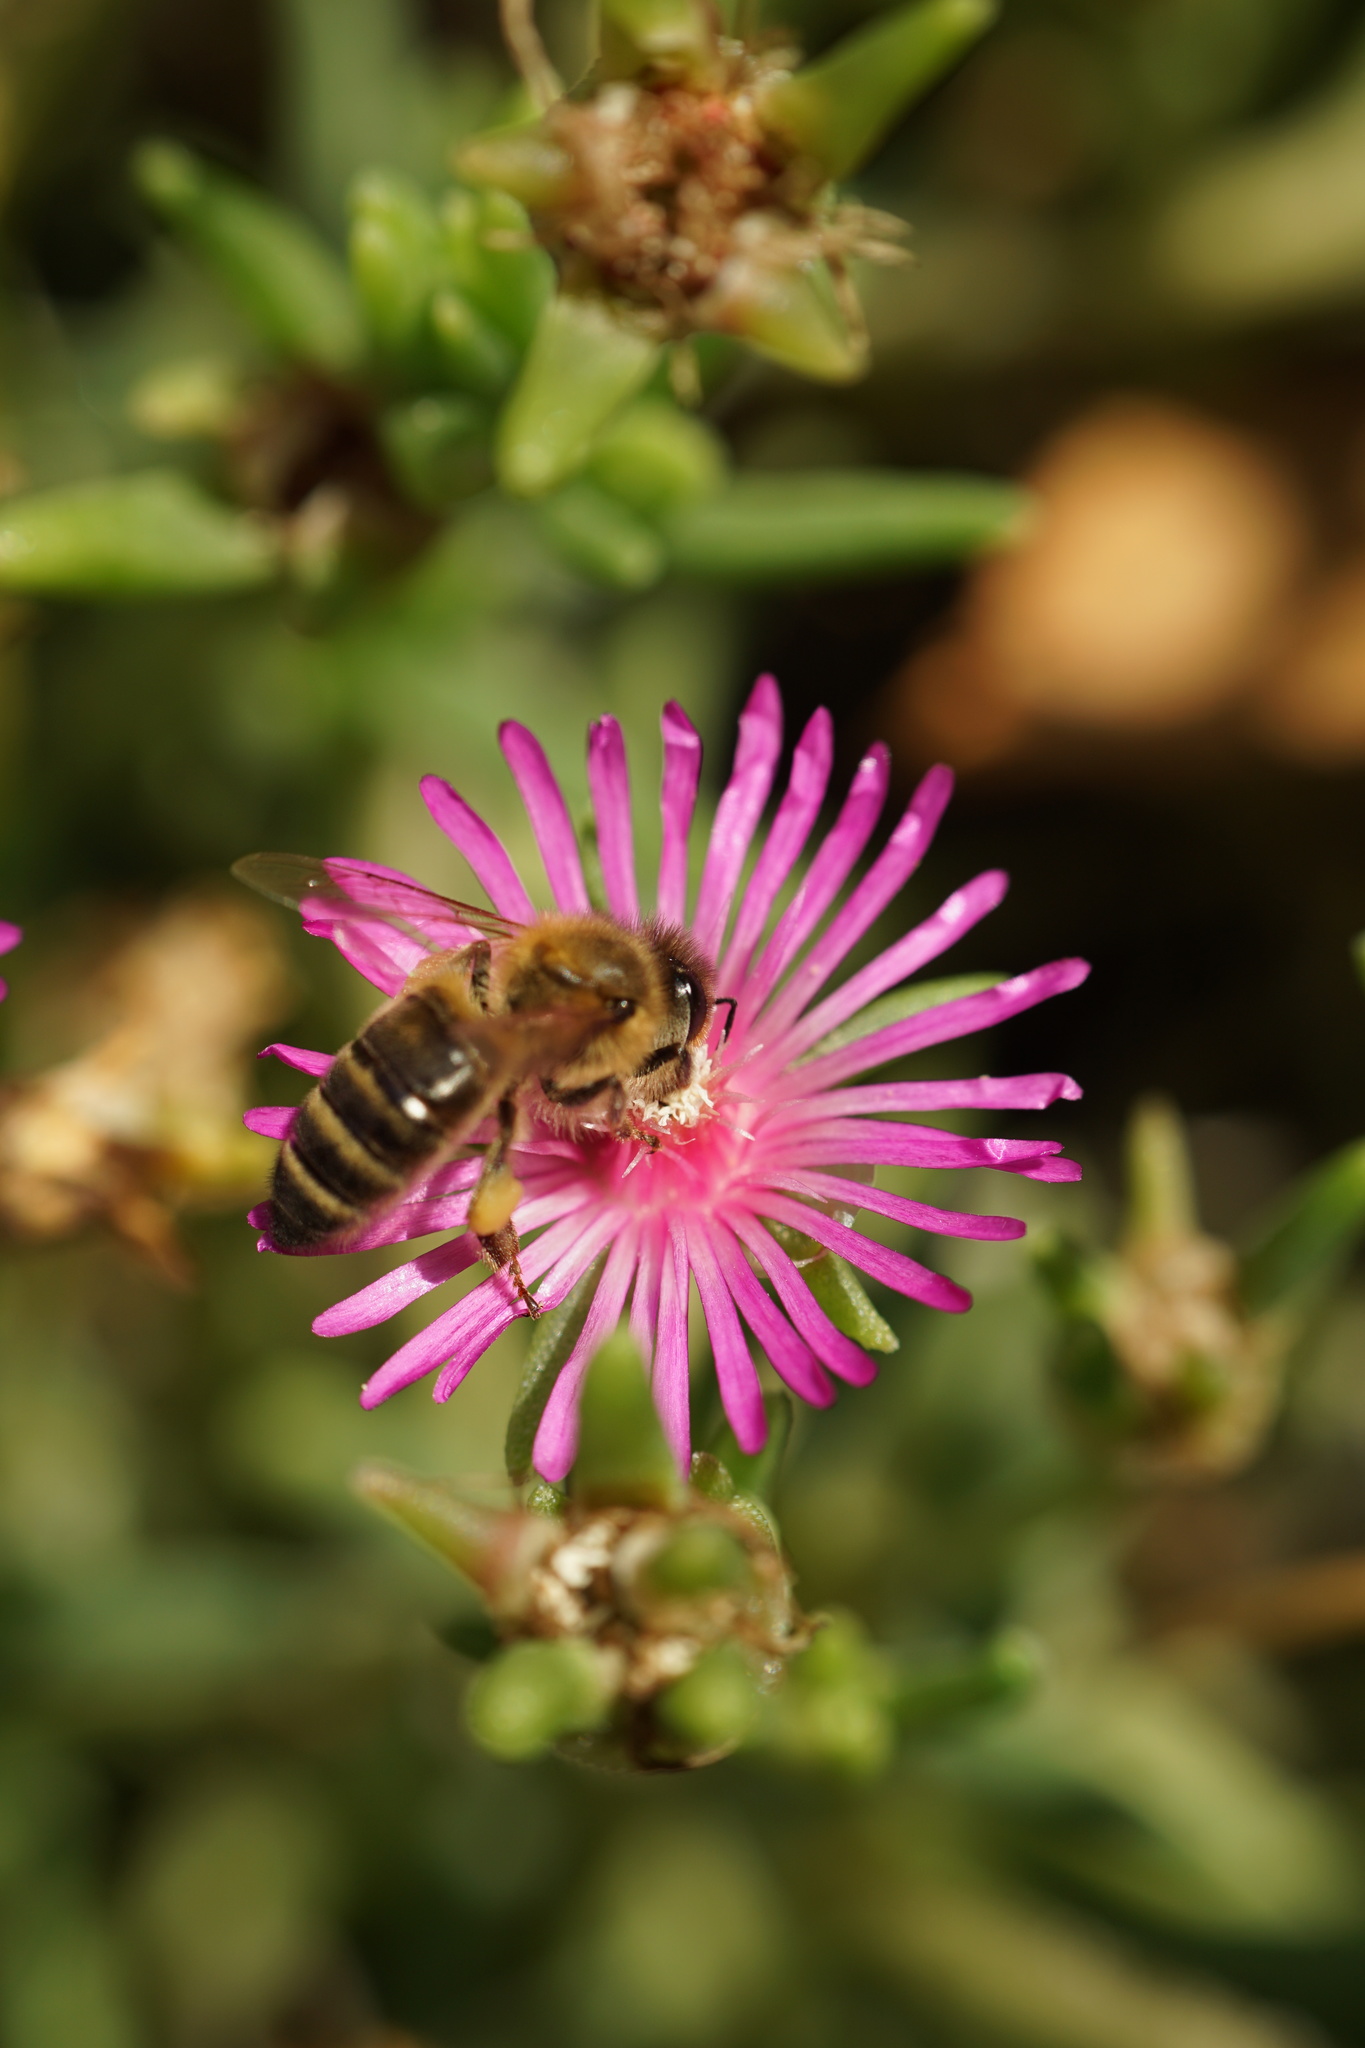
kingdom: Animalia
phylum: Arthropoda
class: Insecta
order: Hymenoptera
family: Apidae
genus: Apis
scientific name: Apis mellifera
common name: Honey bee
